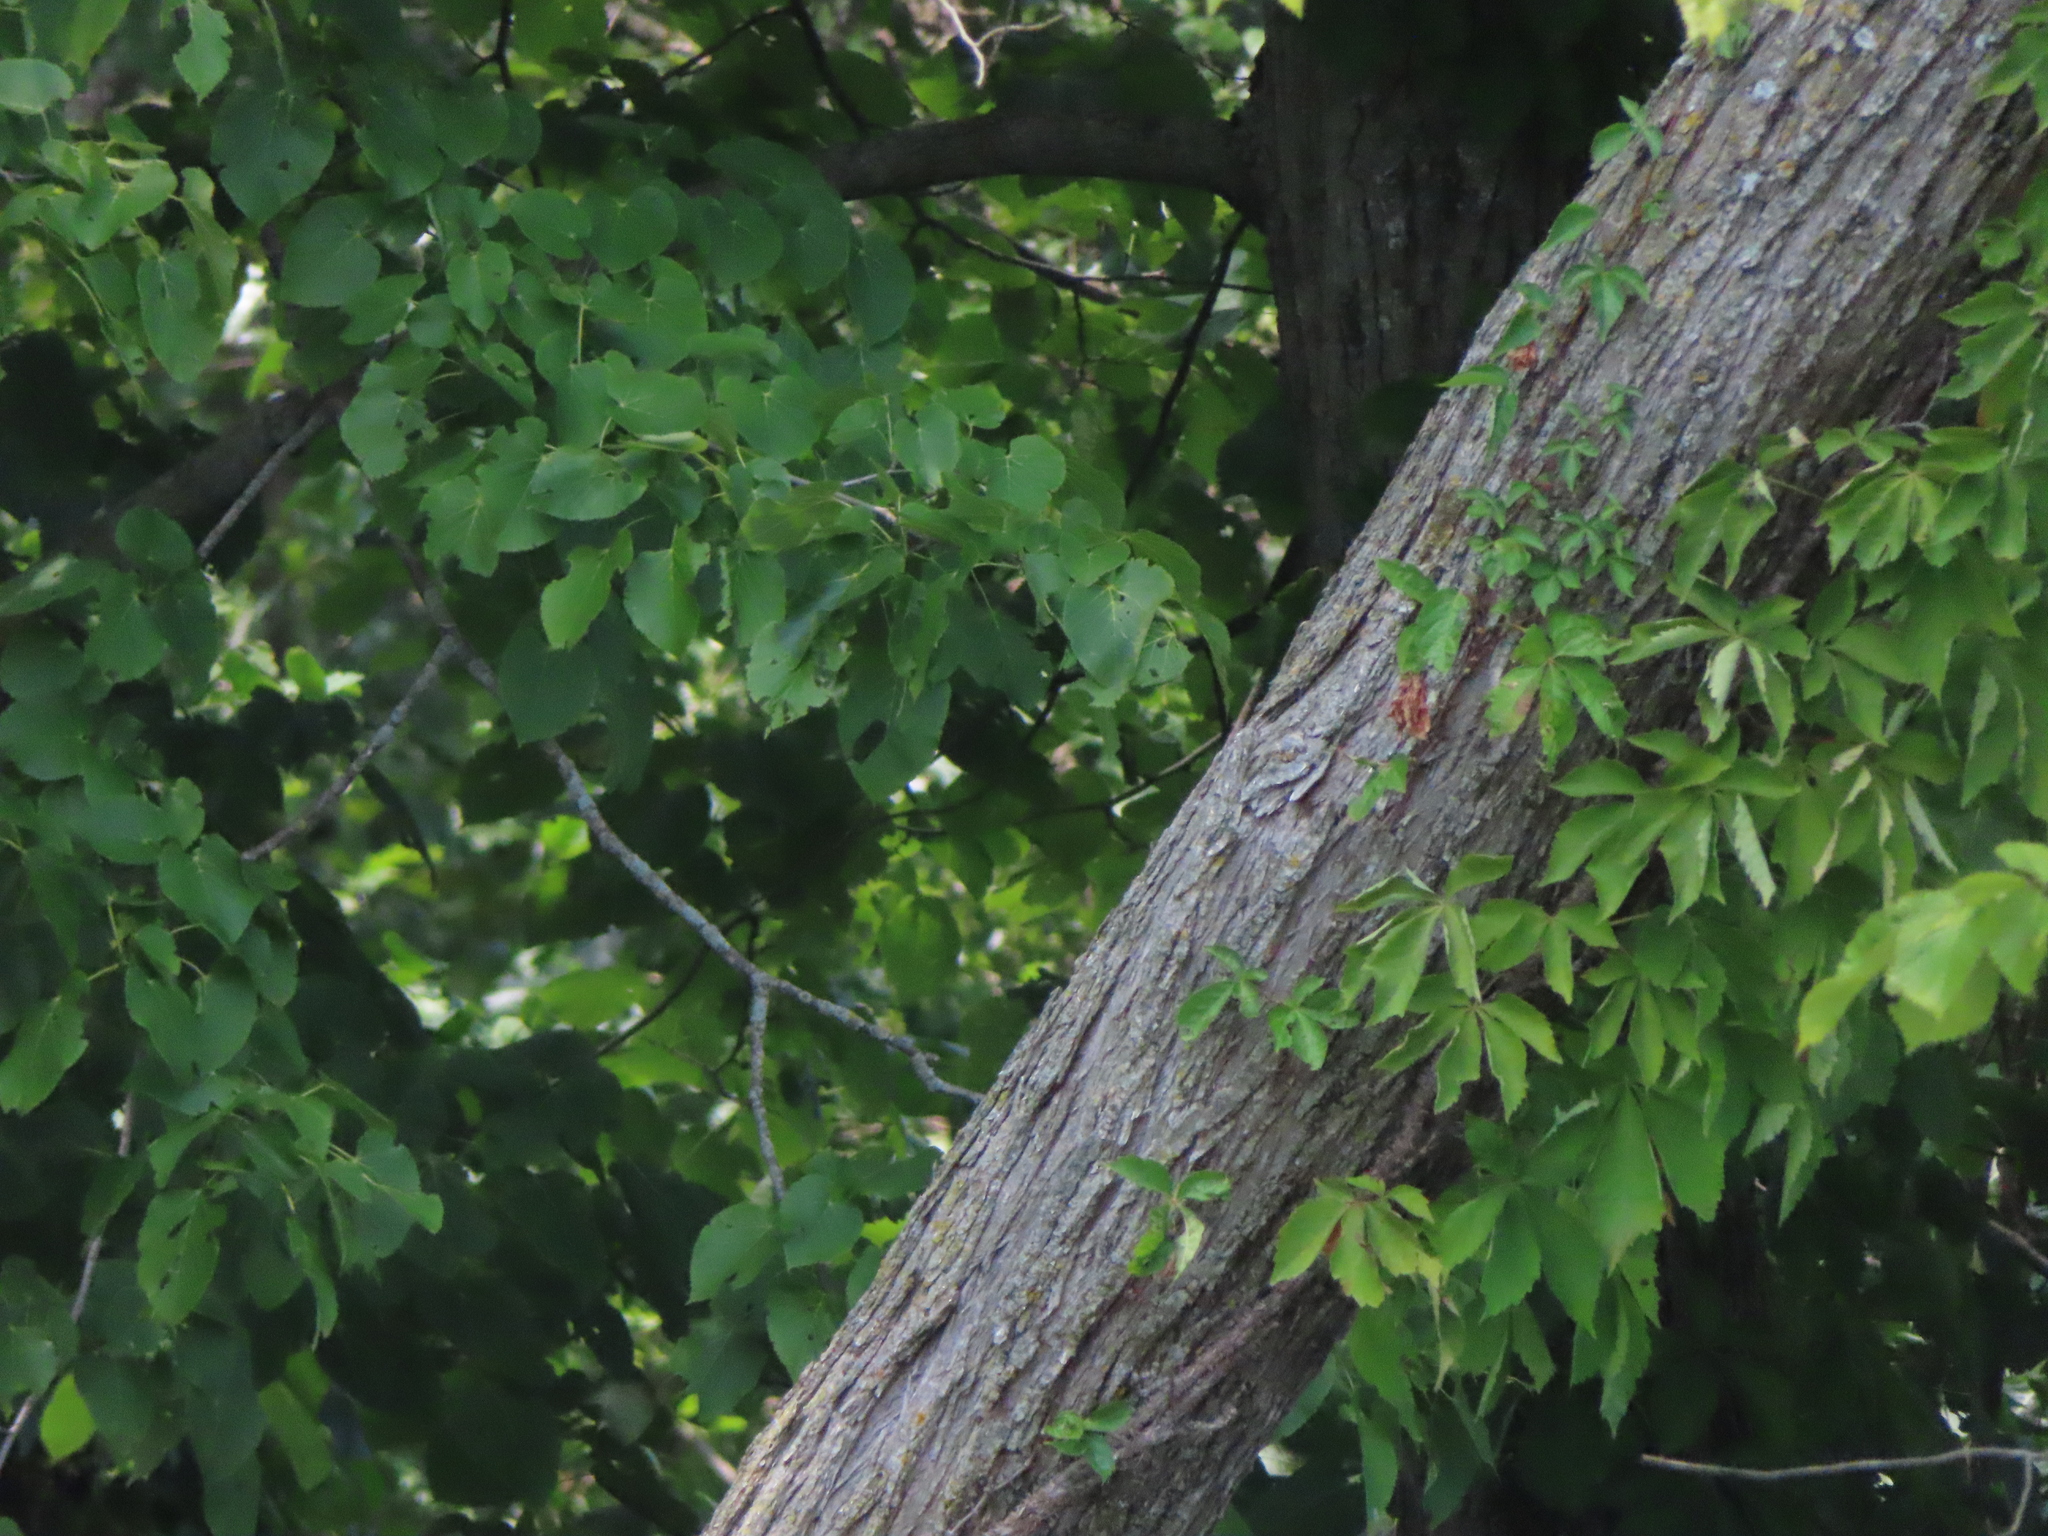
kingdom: Plantae
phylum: Tracheophyta
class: Magnoliopsida
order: Vitales
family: Vitaceae
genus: Parthenocissus
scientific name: Parthenocissus quinquefolia
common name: Virginia-creeper
